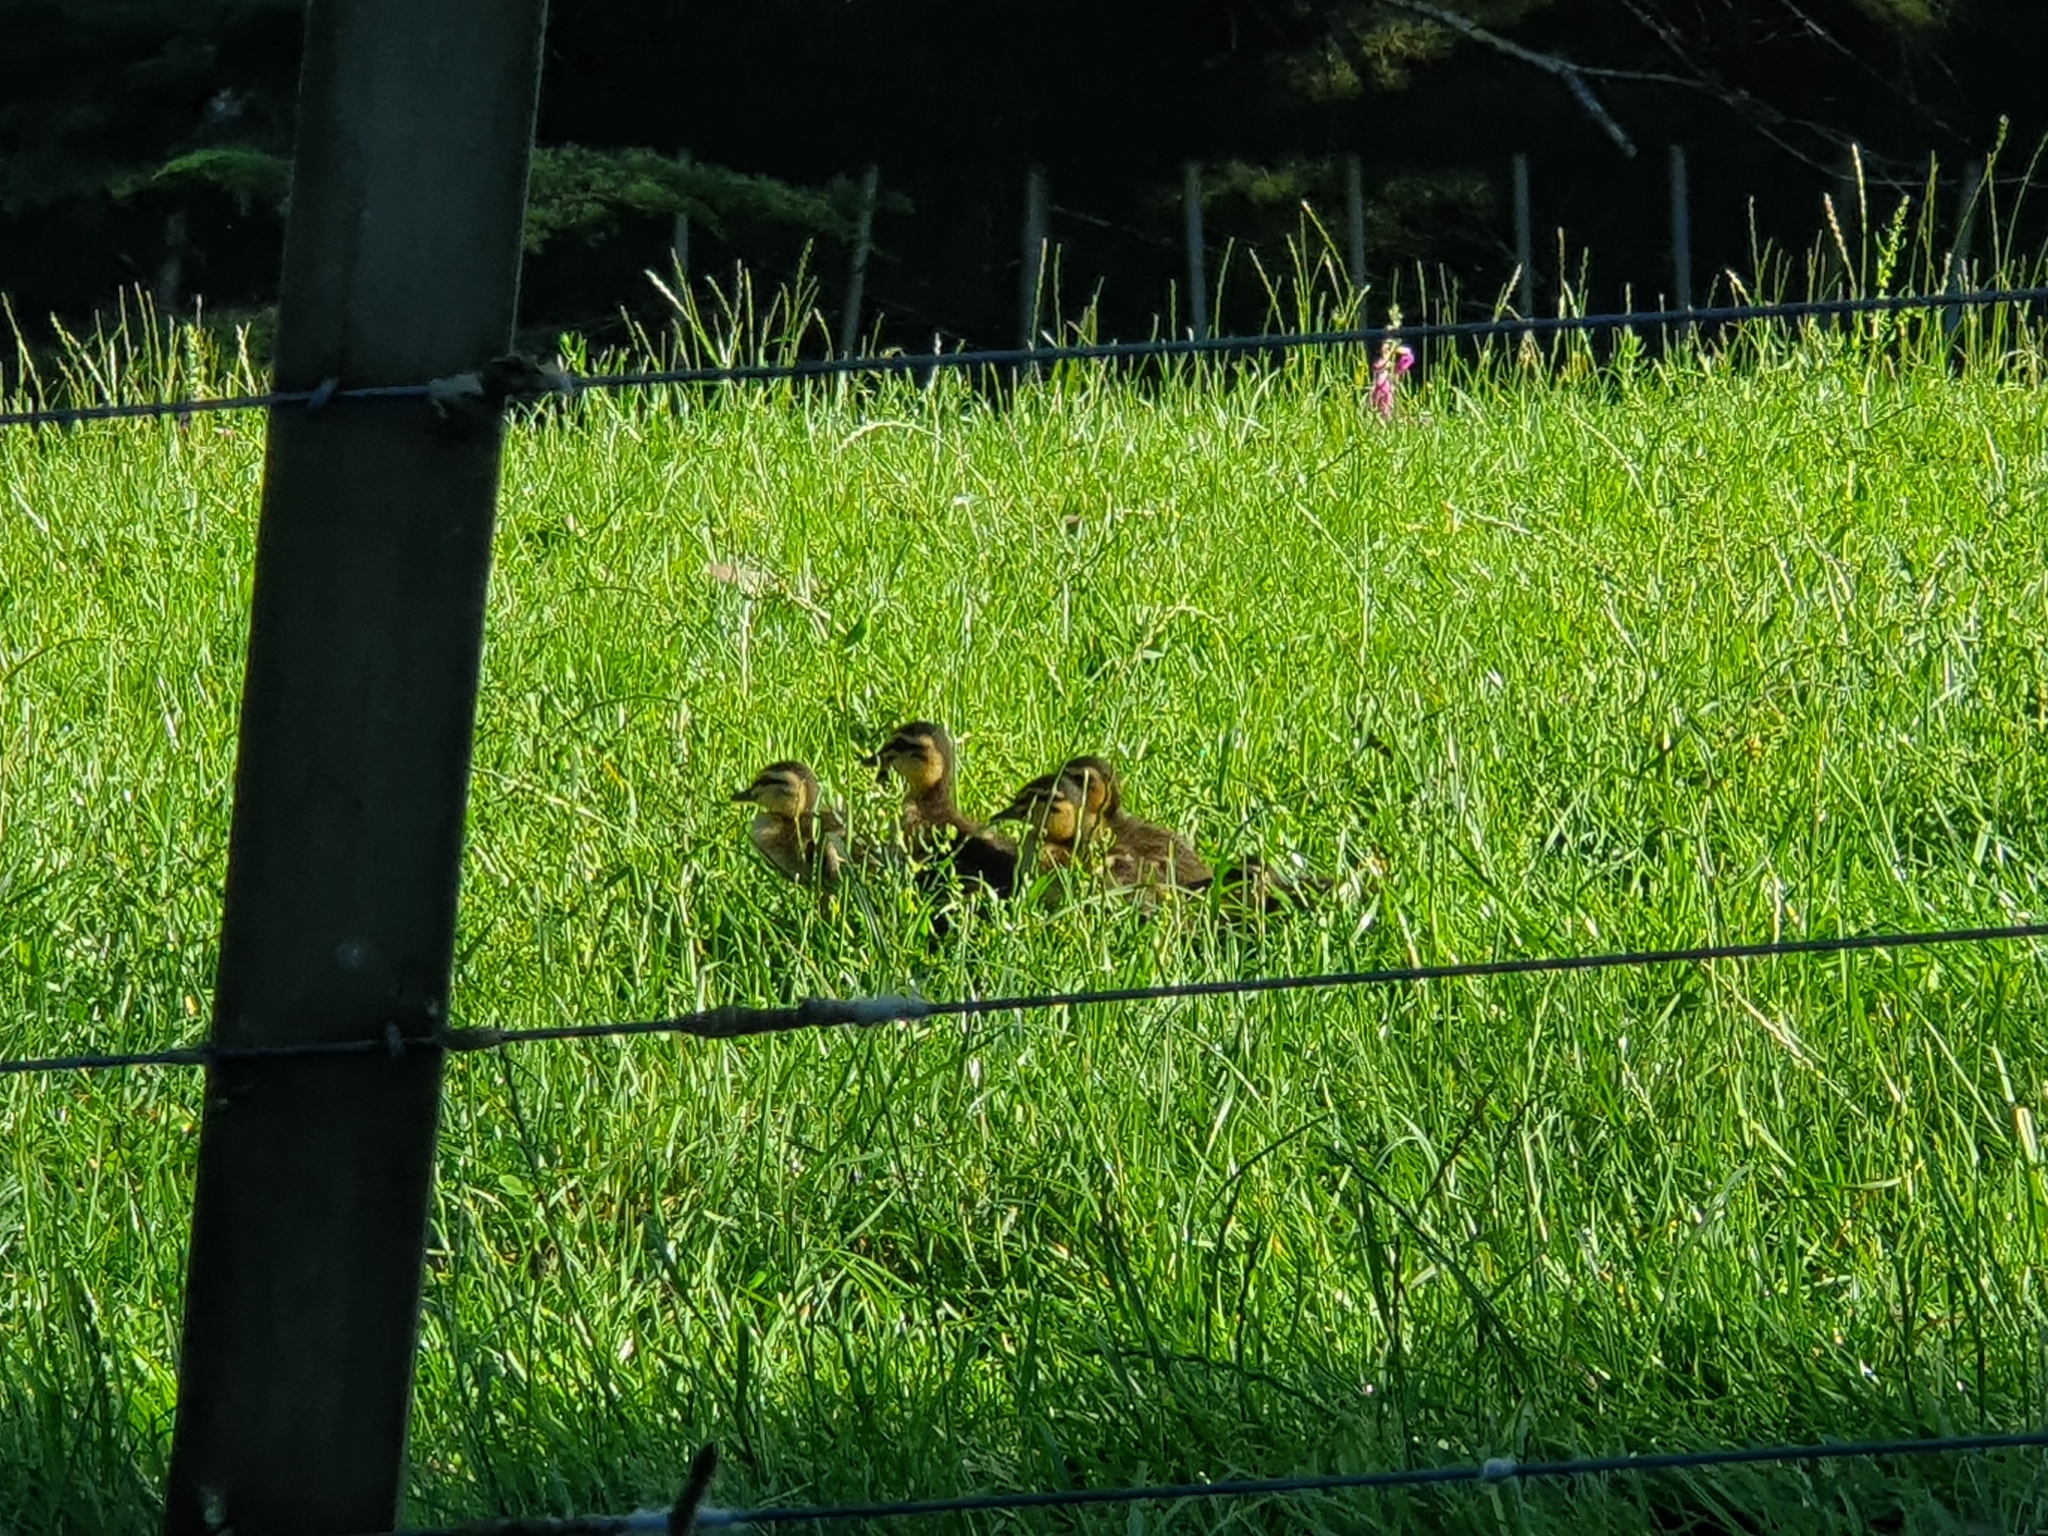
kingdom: Animalia
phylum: Chordata
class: Aves
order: Anseriformes
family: Anatidae
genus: Anas
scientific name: Anas
